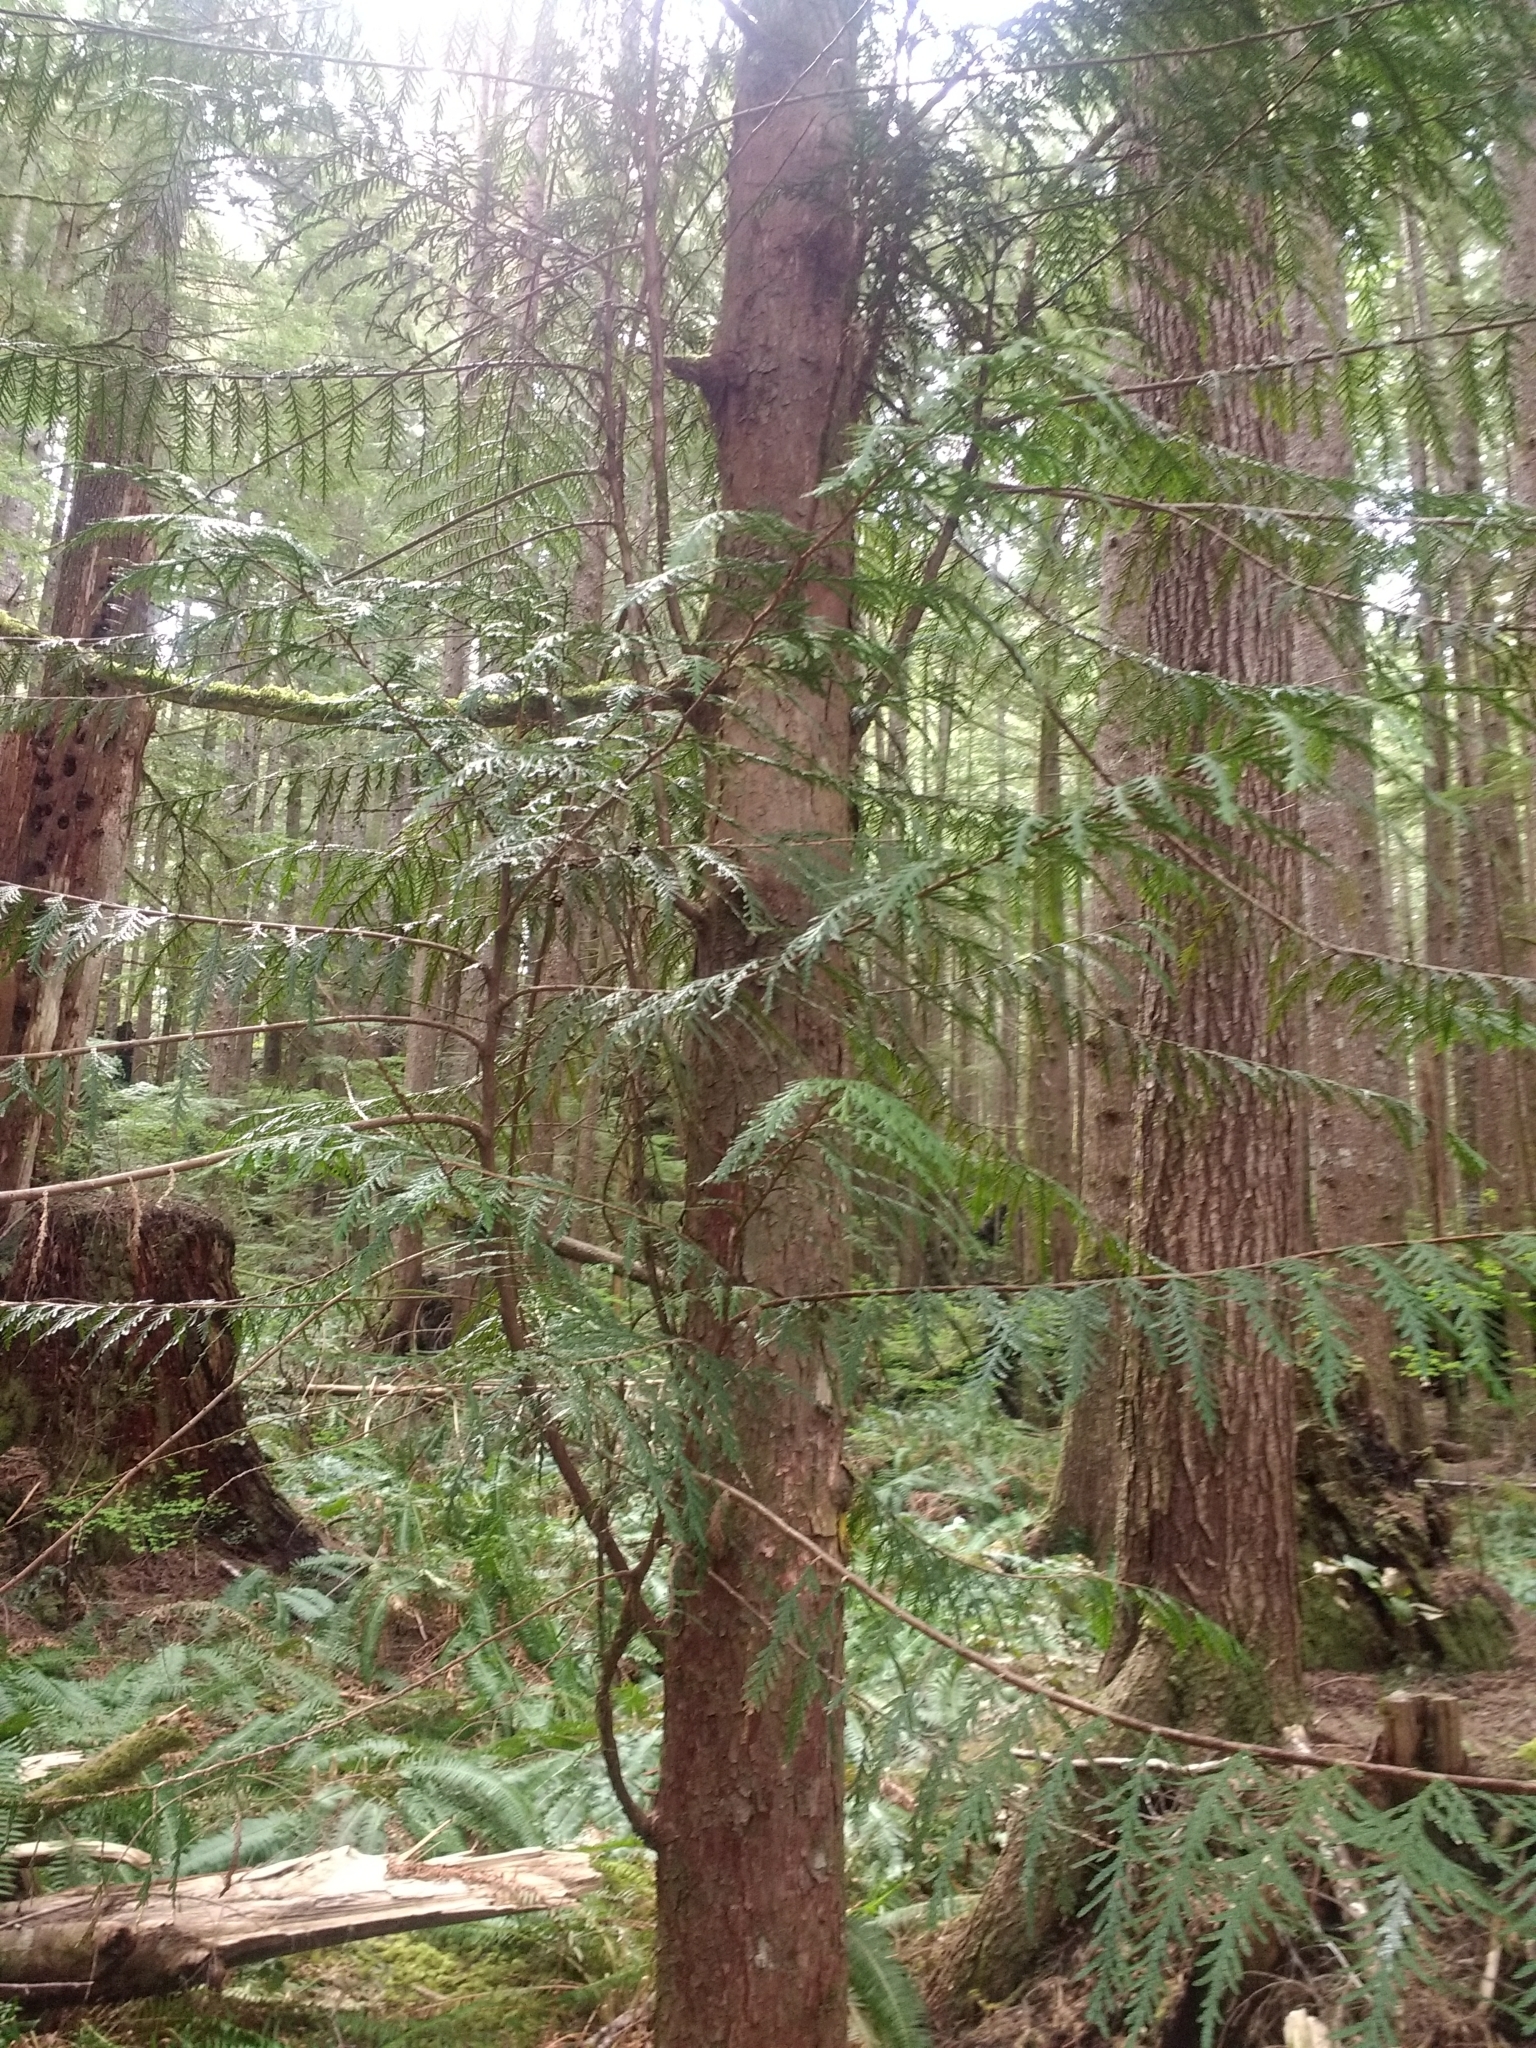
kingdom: Plantae
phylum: Tracheophyta
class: Pinopsida
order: Pinales
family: Cupressaceae
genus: Thuja
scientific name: Thuja plicata
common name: Western red-cedar
